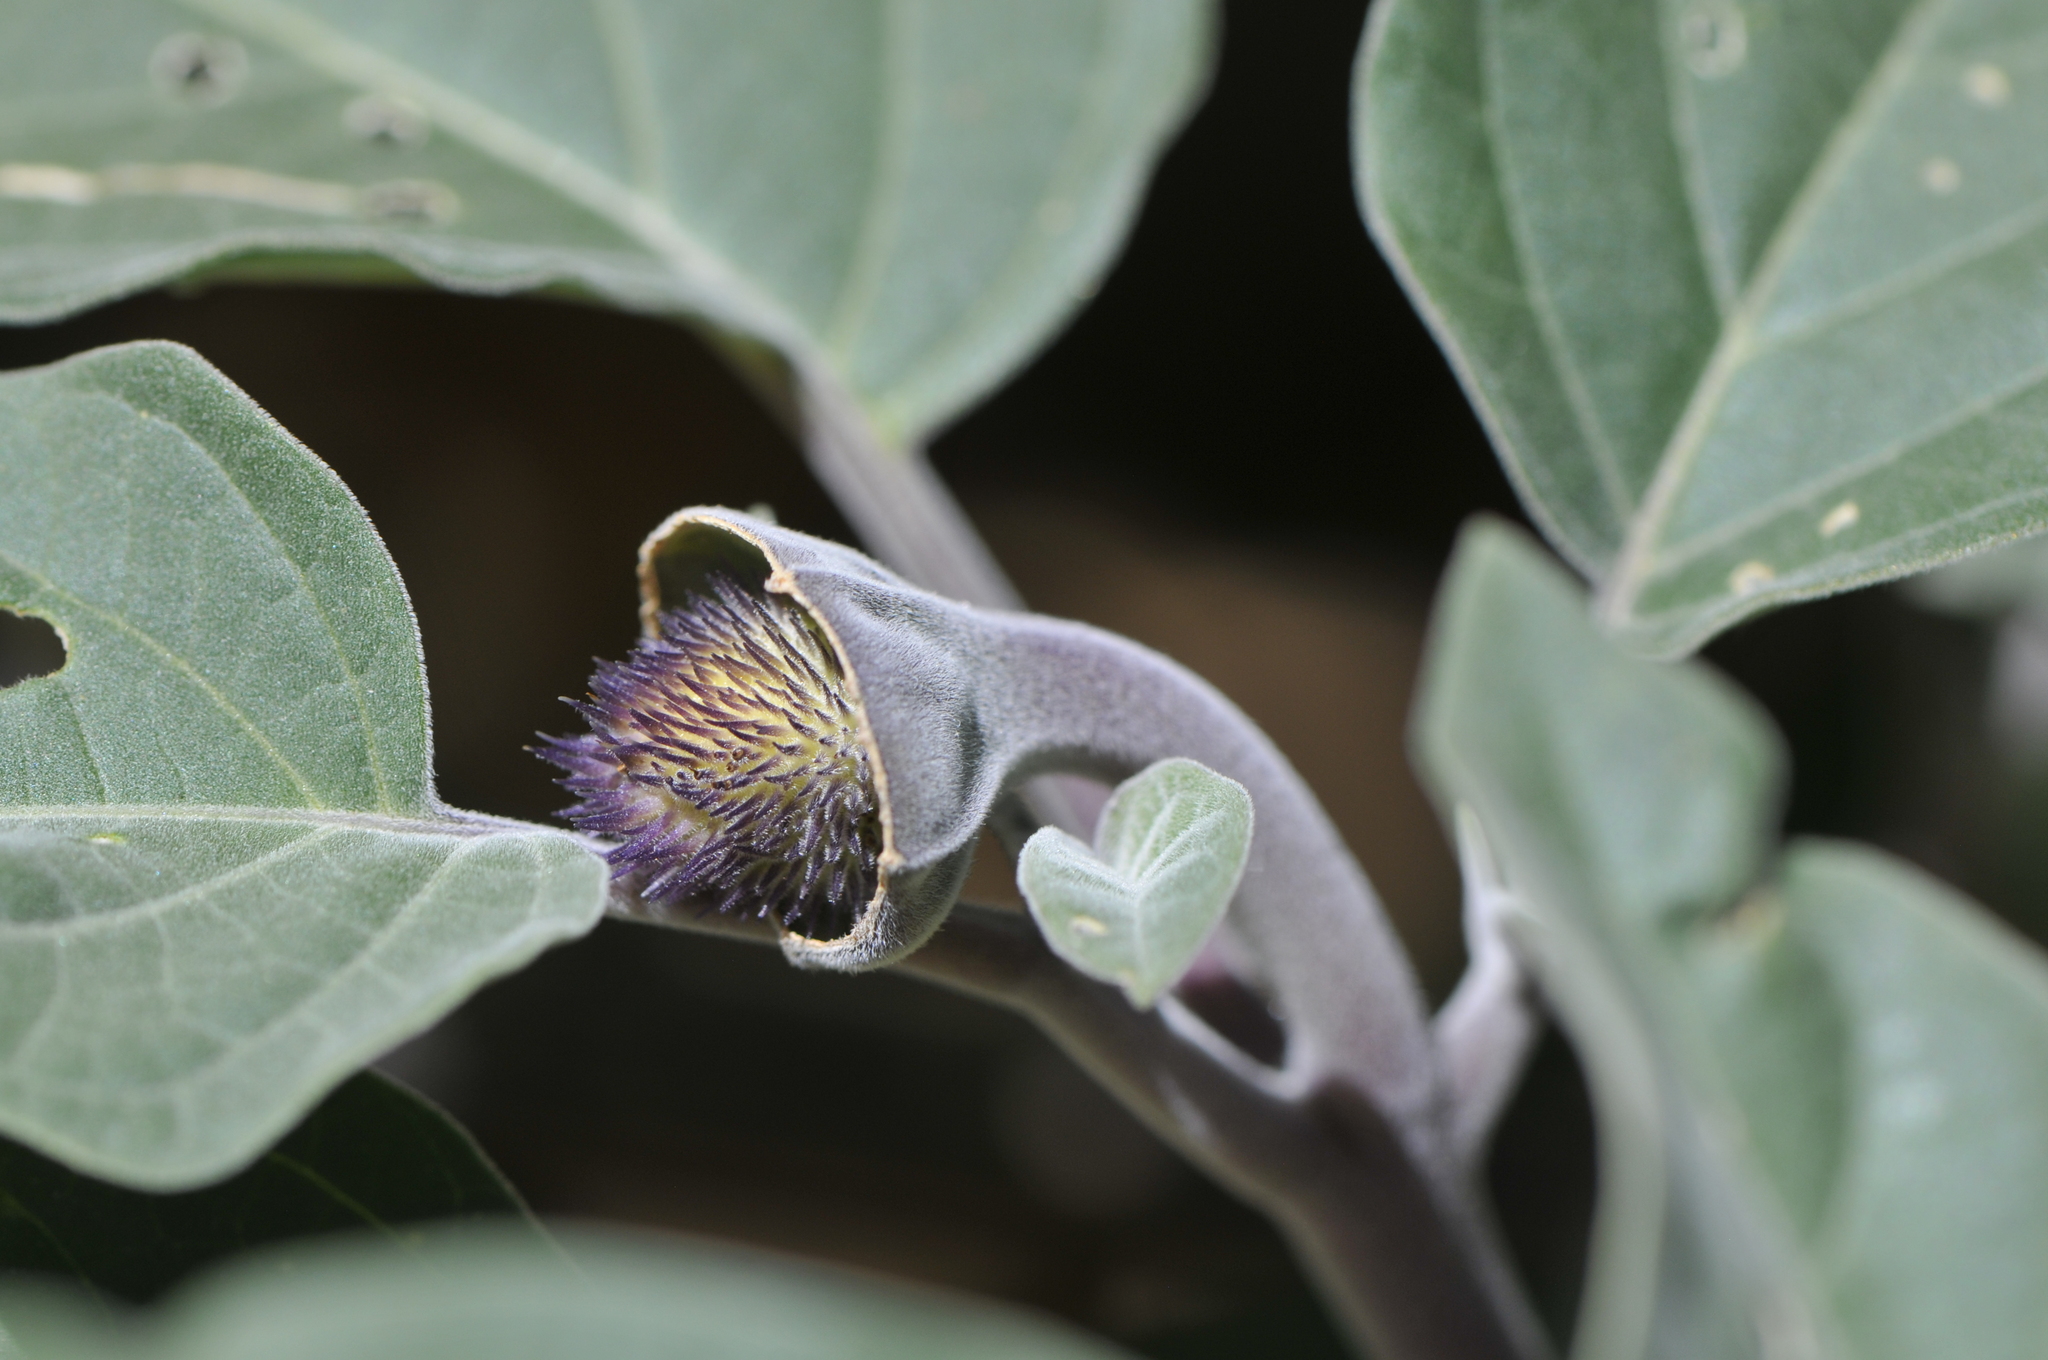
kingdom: Plantae
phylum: Tracheophyta
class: Magnoliopsida
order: Solanales
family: Solanaceae
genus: Datura
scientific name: Datura wrightii
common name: Sacred thorn-apple
